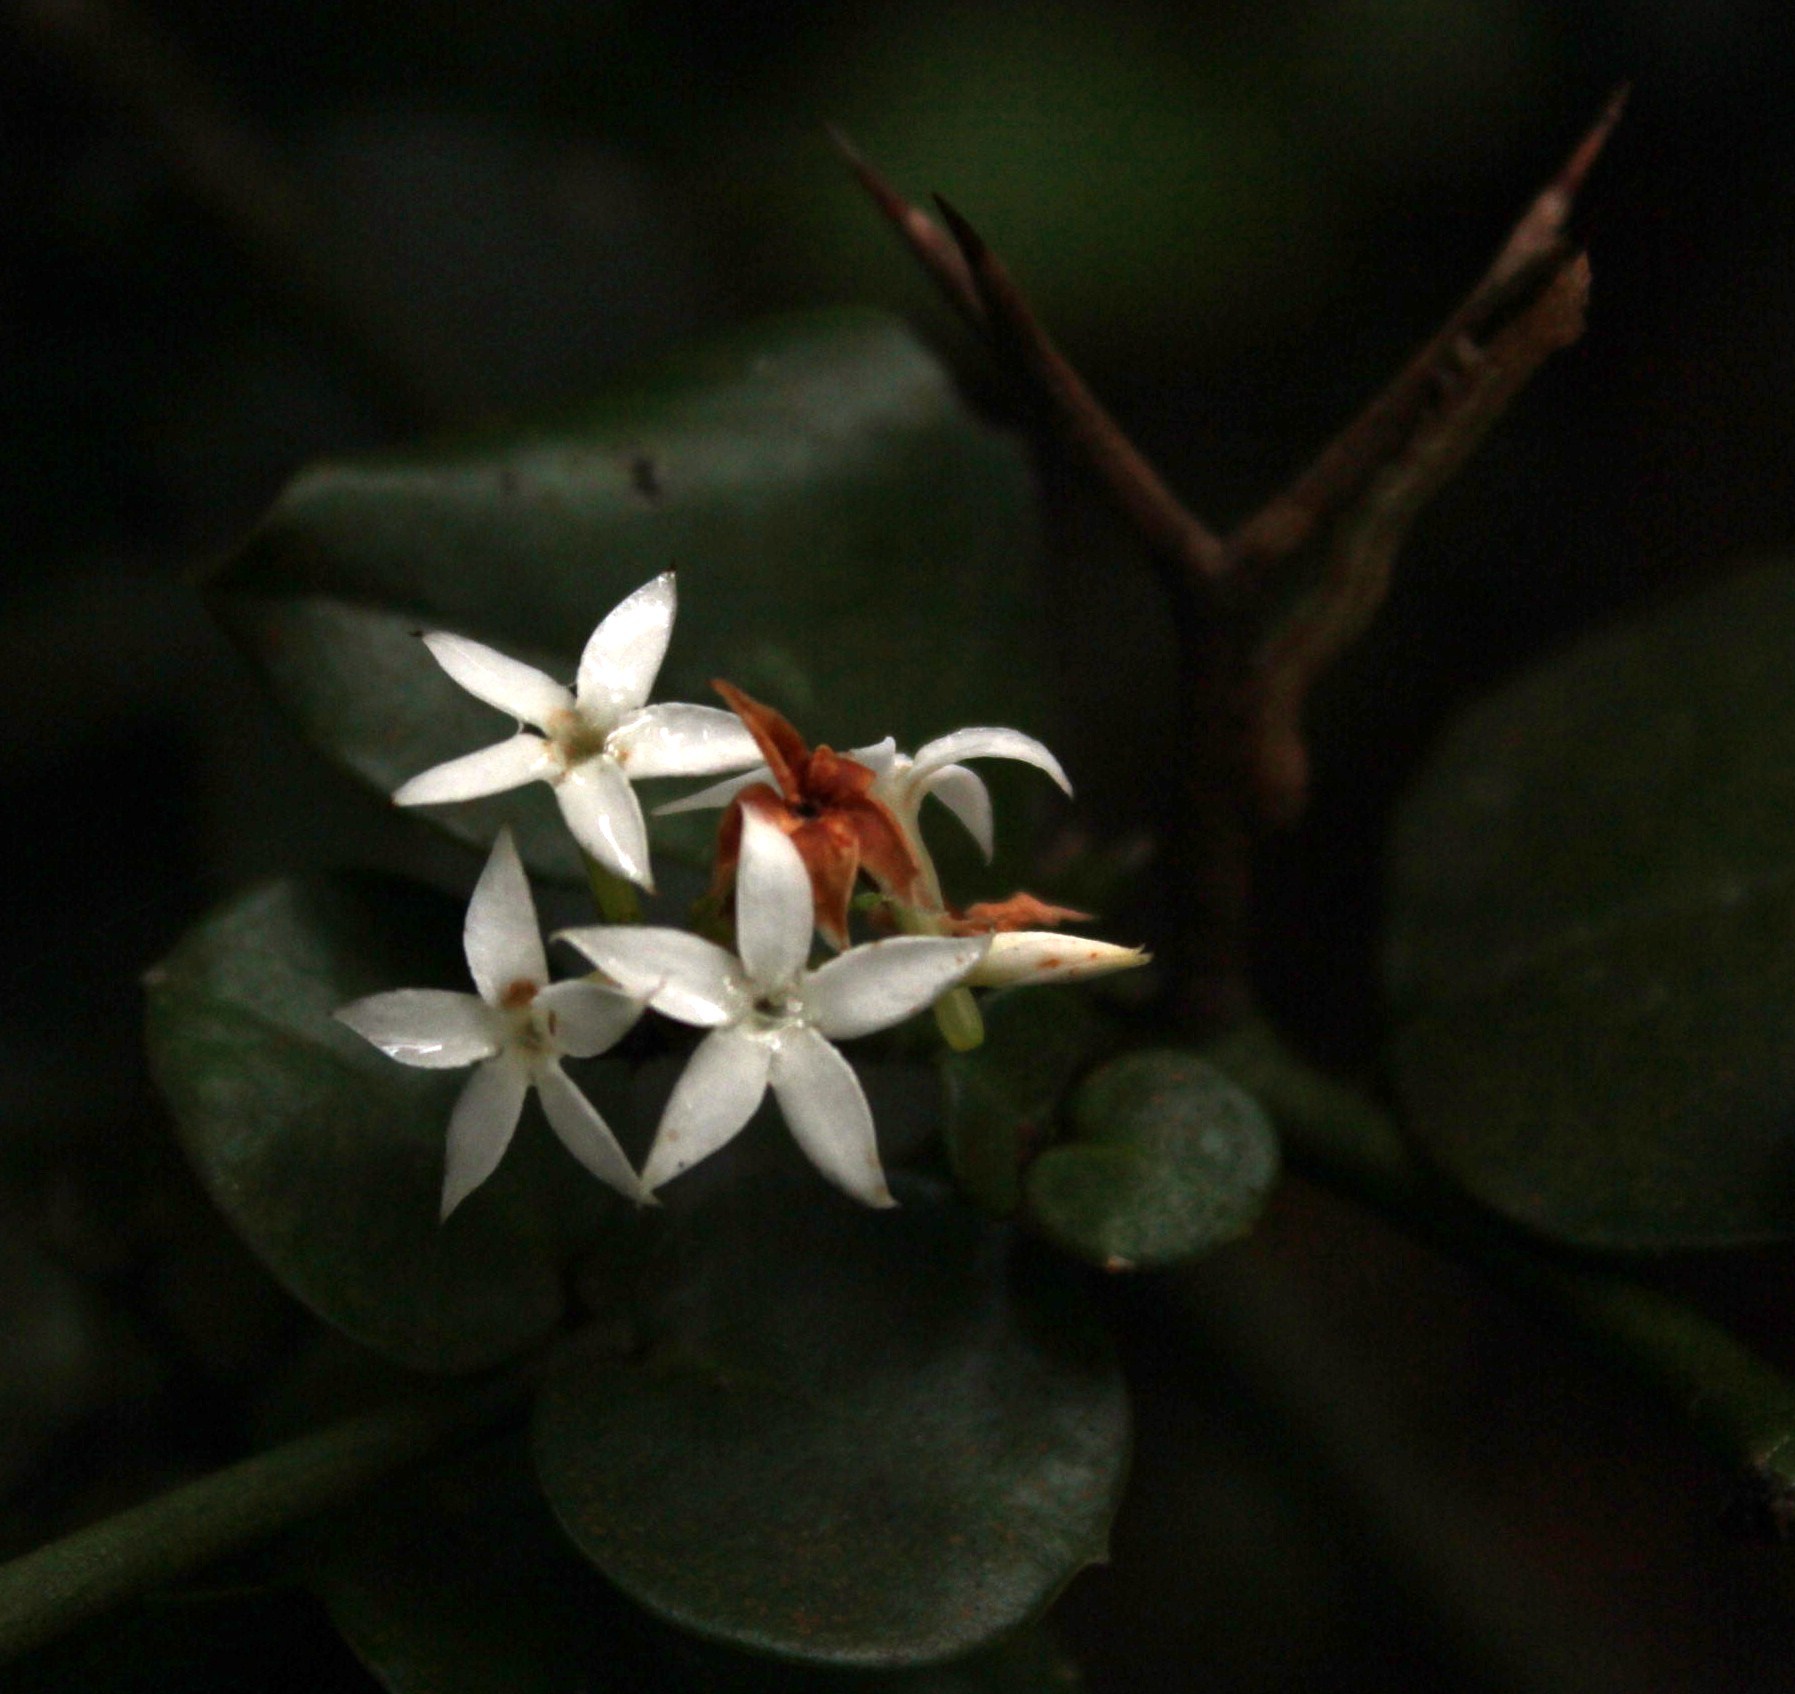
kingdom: Plantae
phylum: Tracheophyta
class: Magnoliopsida
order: Gentianales
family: Apocynaceae
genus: Carissa
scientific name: Carissa bispinosa
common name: Forest num-num
